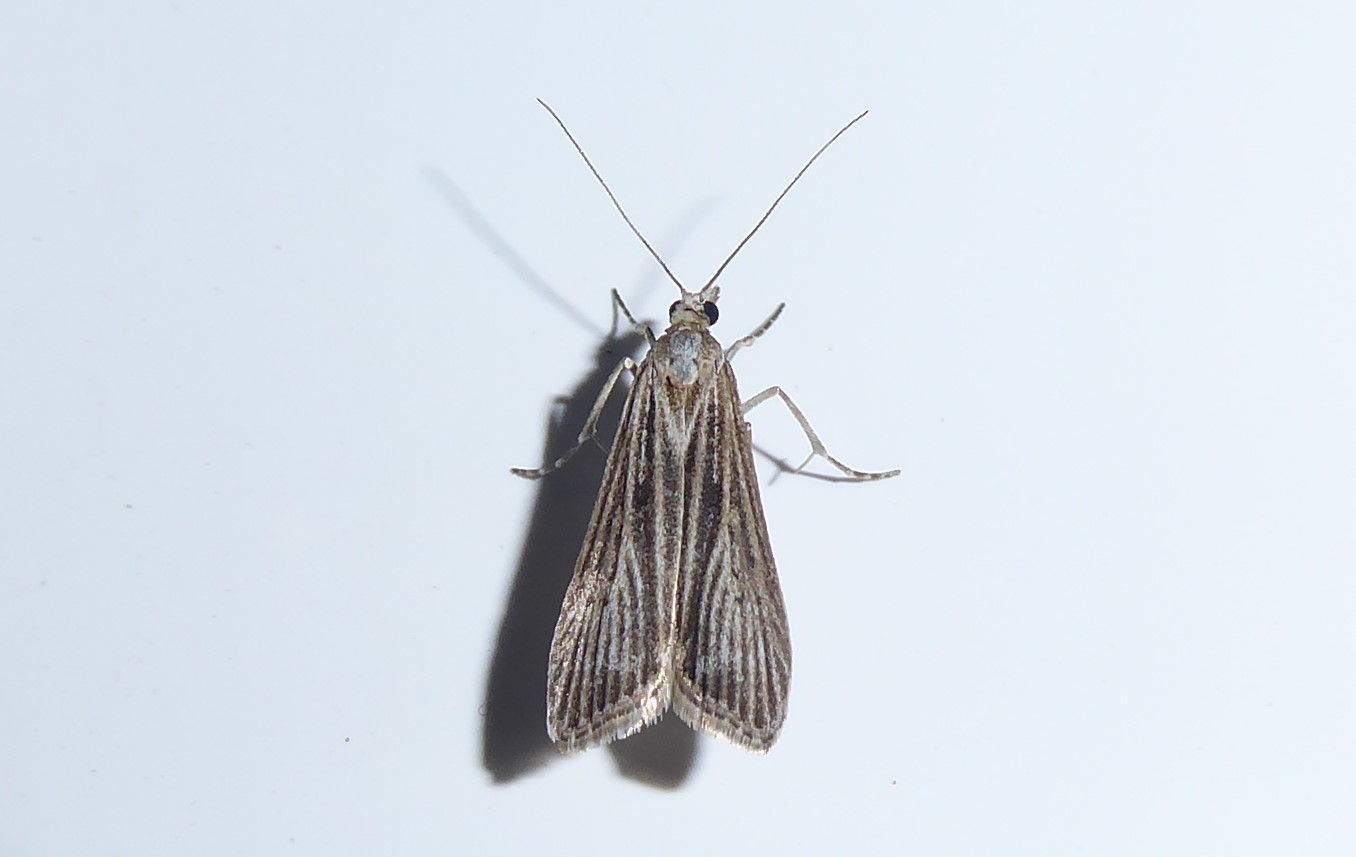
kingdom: Animalia
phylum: Arthropoda
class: Insecta
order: Lepidoptera
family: Crambidae
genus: Eudonia
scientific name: Eudonia atmogramma
